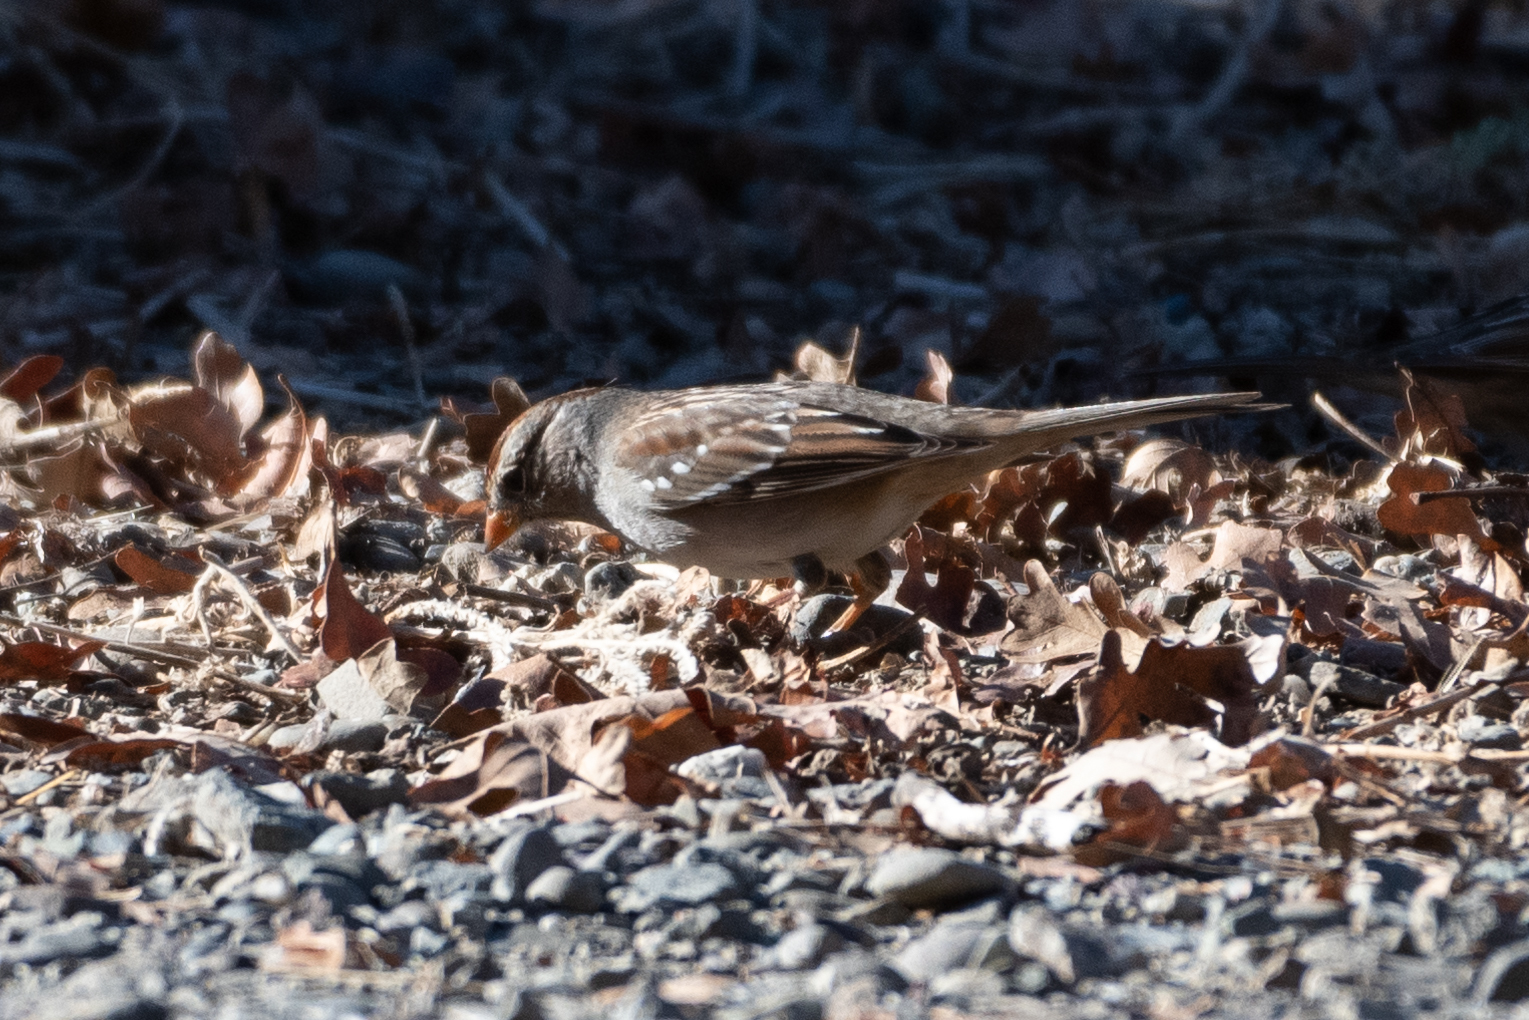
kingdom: Animalia
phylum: Chordata
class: Aves
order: Passeriformes
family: Passerellidae
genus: Zonotrichia
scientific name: Zonotrichia leucophrys
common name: White-crowned sparrow
